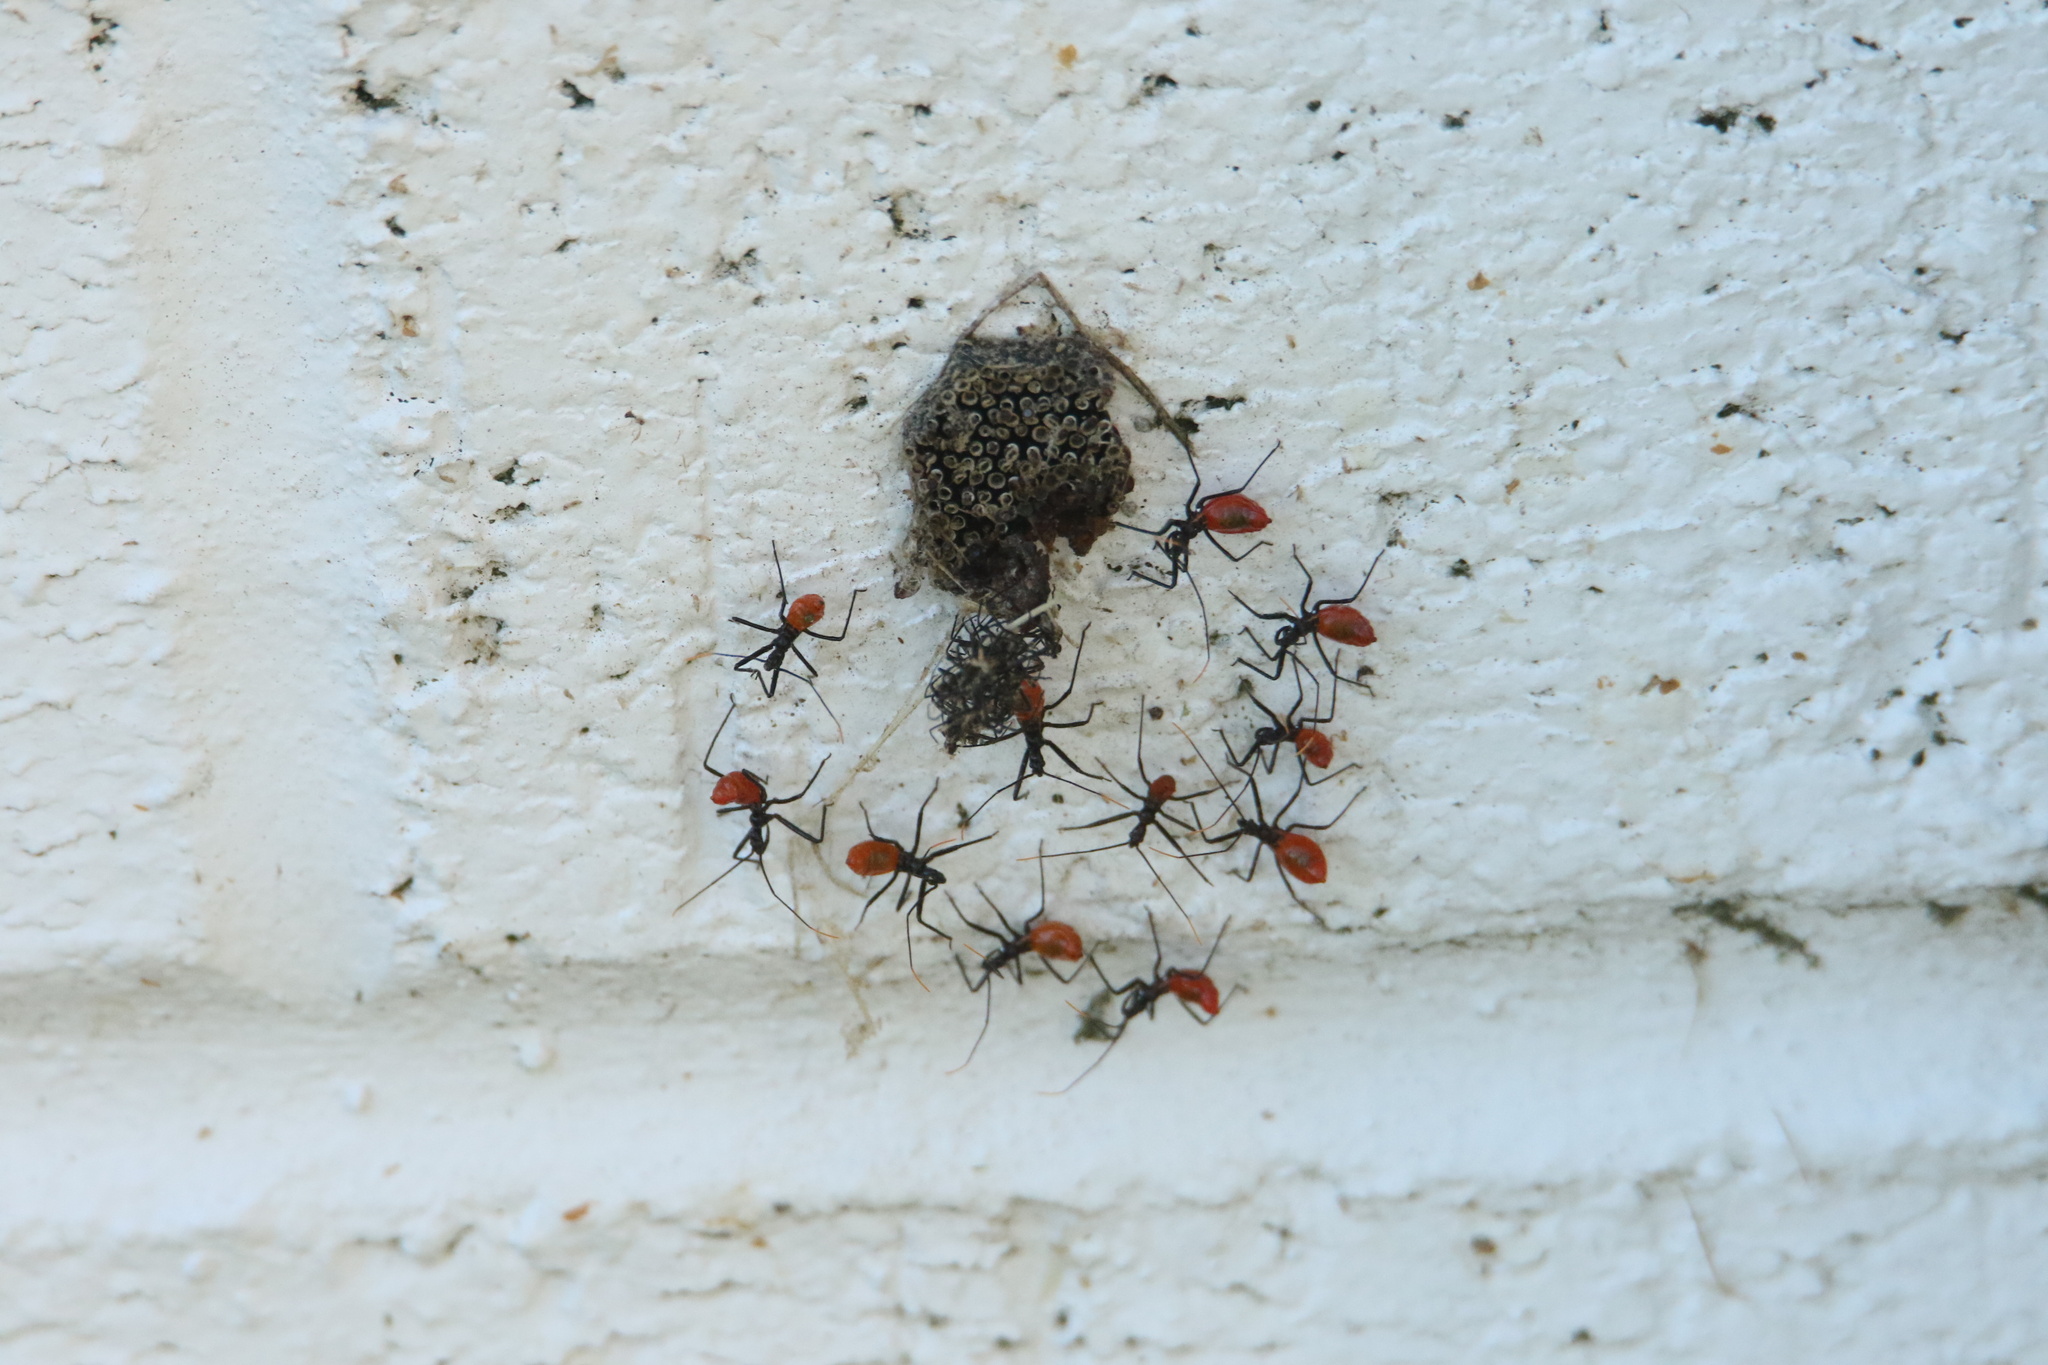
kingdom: Animalia
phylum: Arthropoda
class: Insecta
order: Hemiptera
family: Reduviidae
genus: Arilus
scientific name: Arilus cristatus
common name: North american wheel bug
